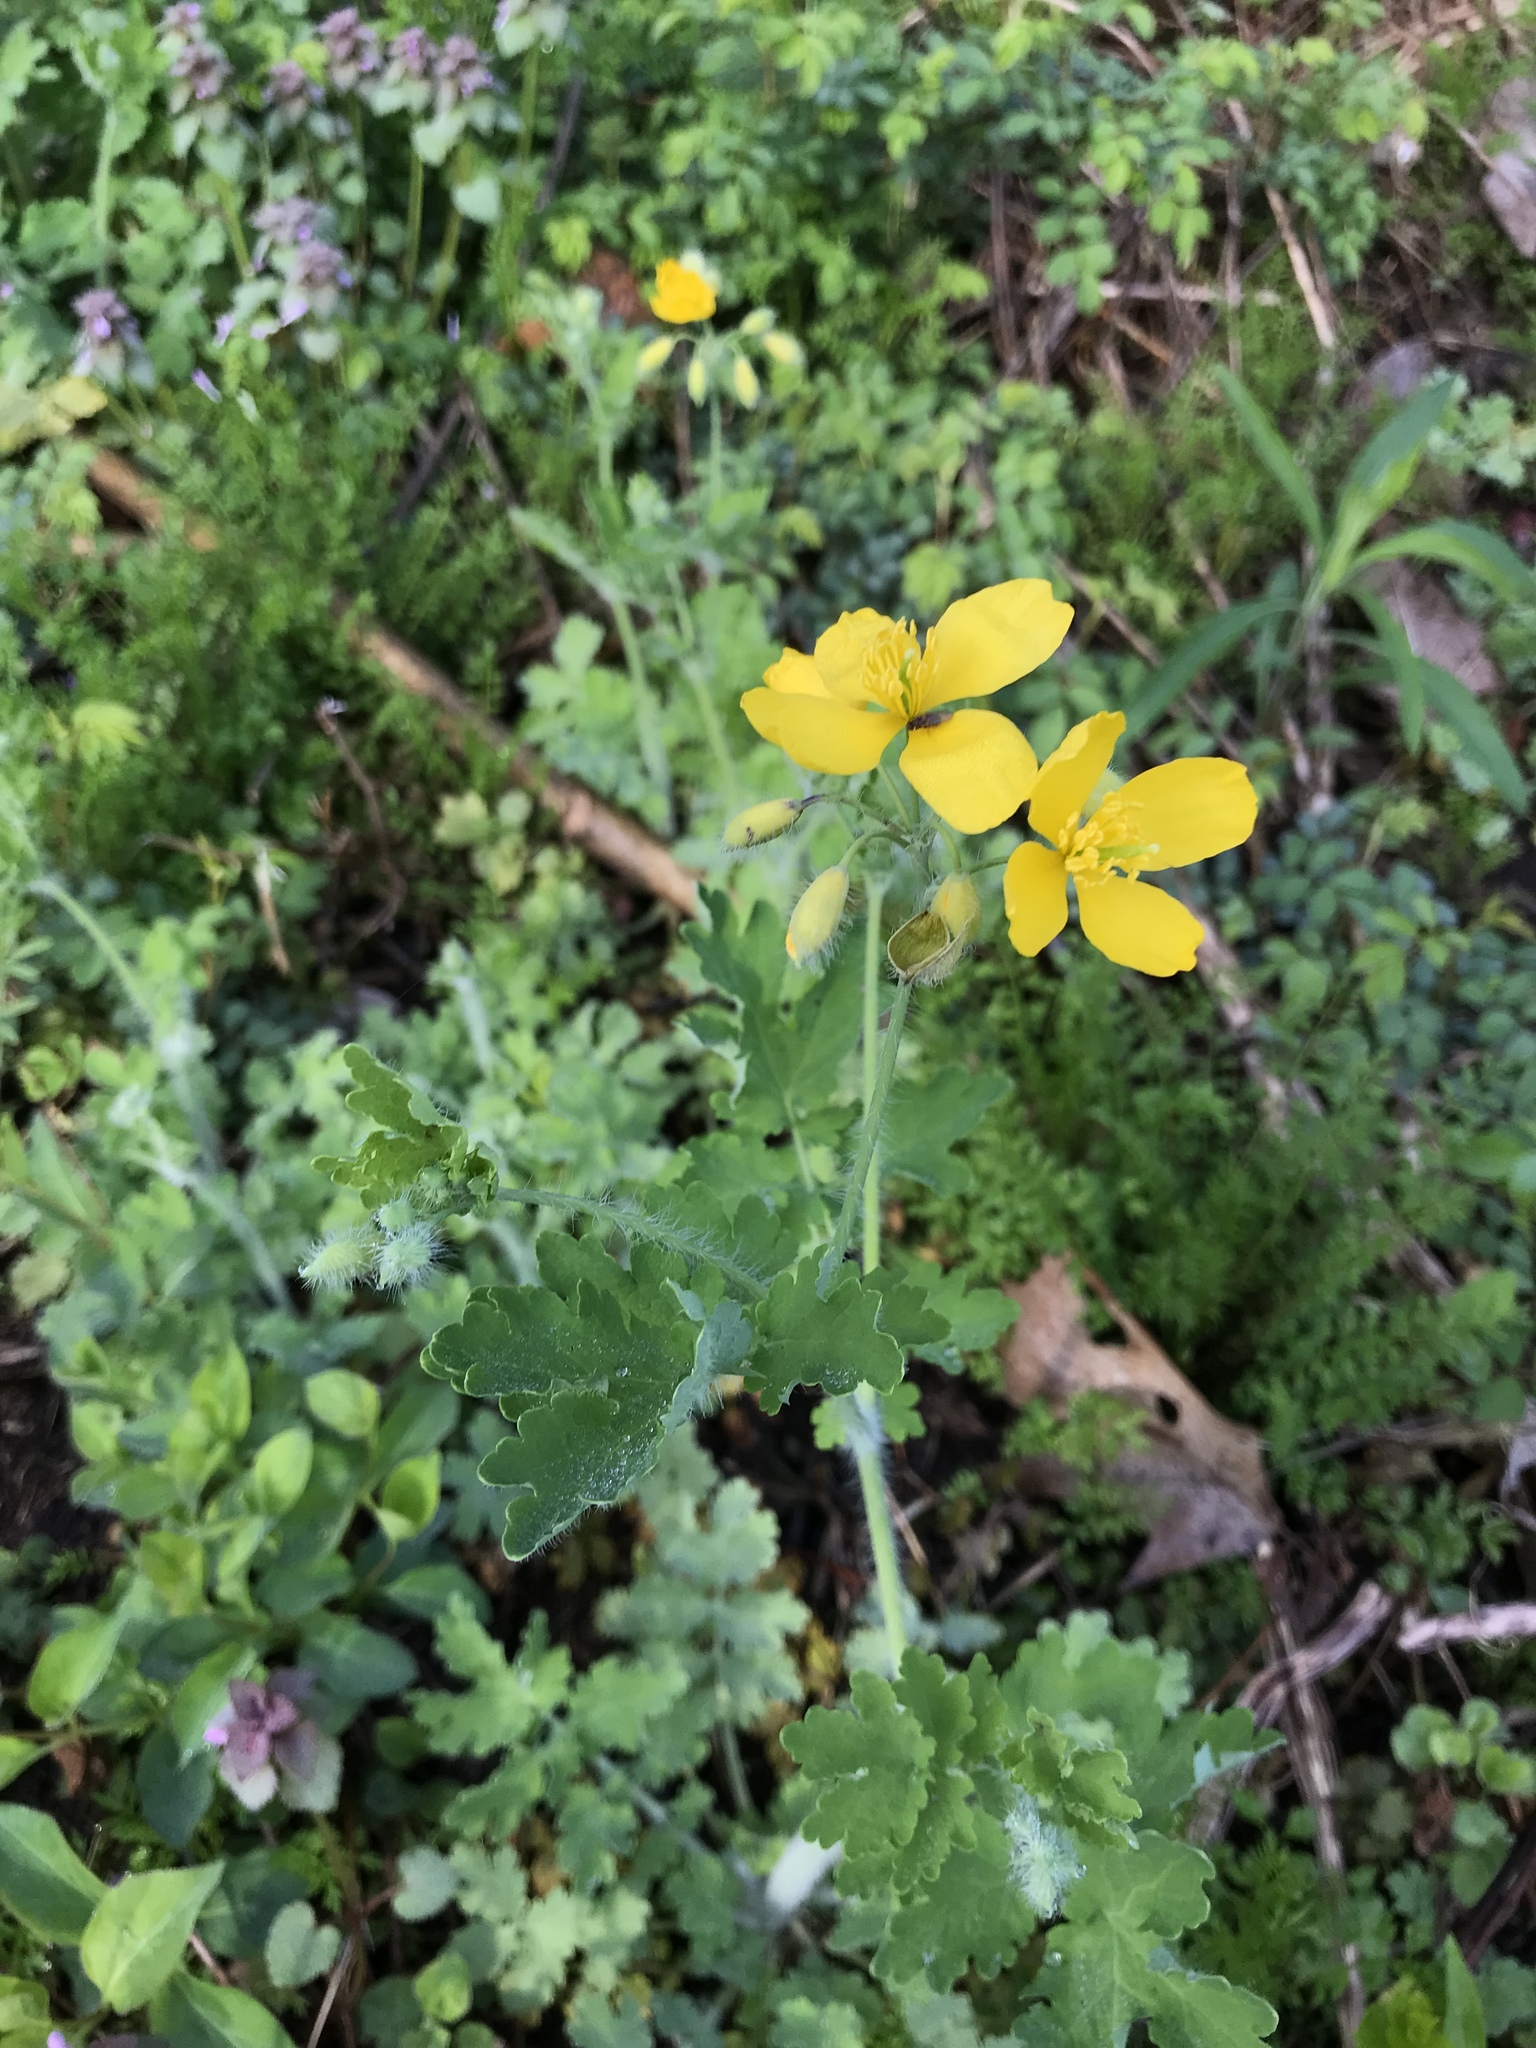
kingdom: Plantae
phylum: Tracheophyta
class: Magnoliopsida
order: Ranunculales
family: Papaveraceae
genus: Chelidonium
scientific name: Chelidonium majus
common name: Greater celandine
